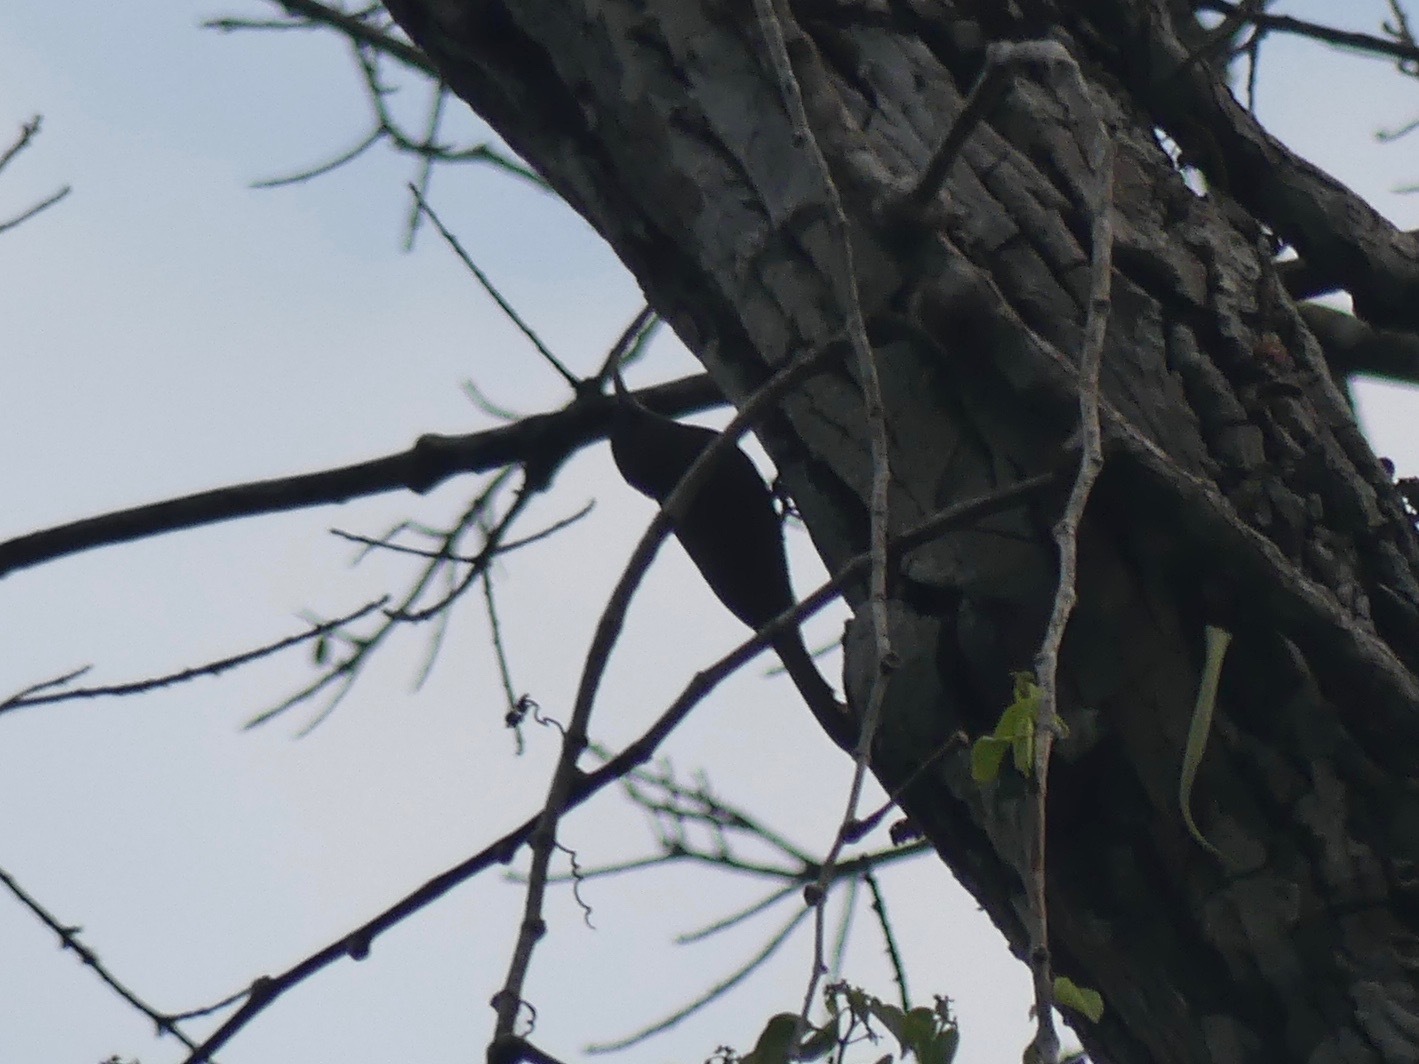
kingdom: Animalia
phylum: Chordata
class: Aves
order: Passeriformes
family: Furnariidae
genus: Lepidocolaptes
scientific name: Lepidocolaptes fatimalimae
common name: Inambari woodcreeper
